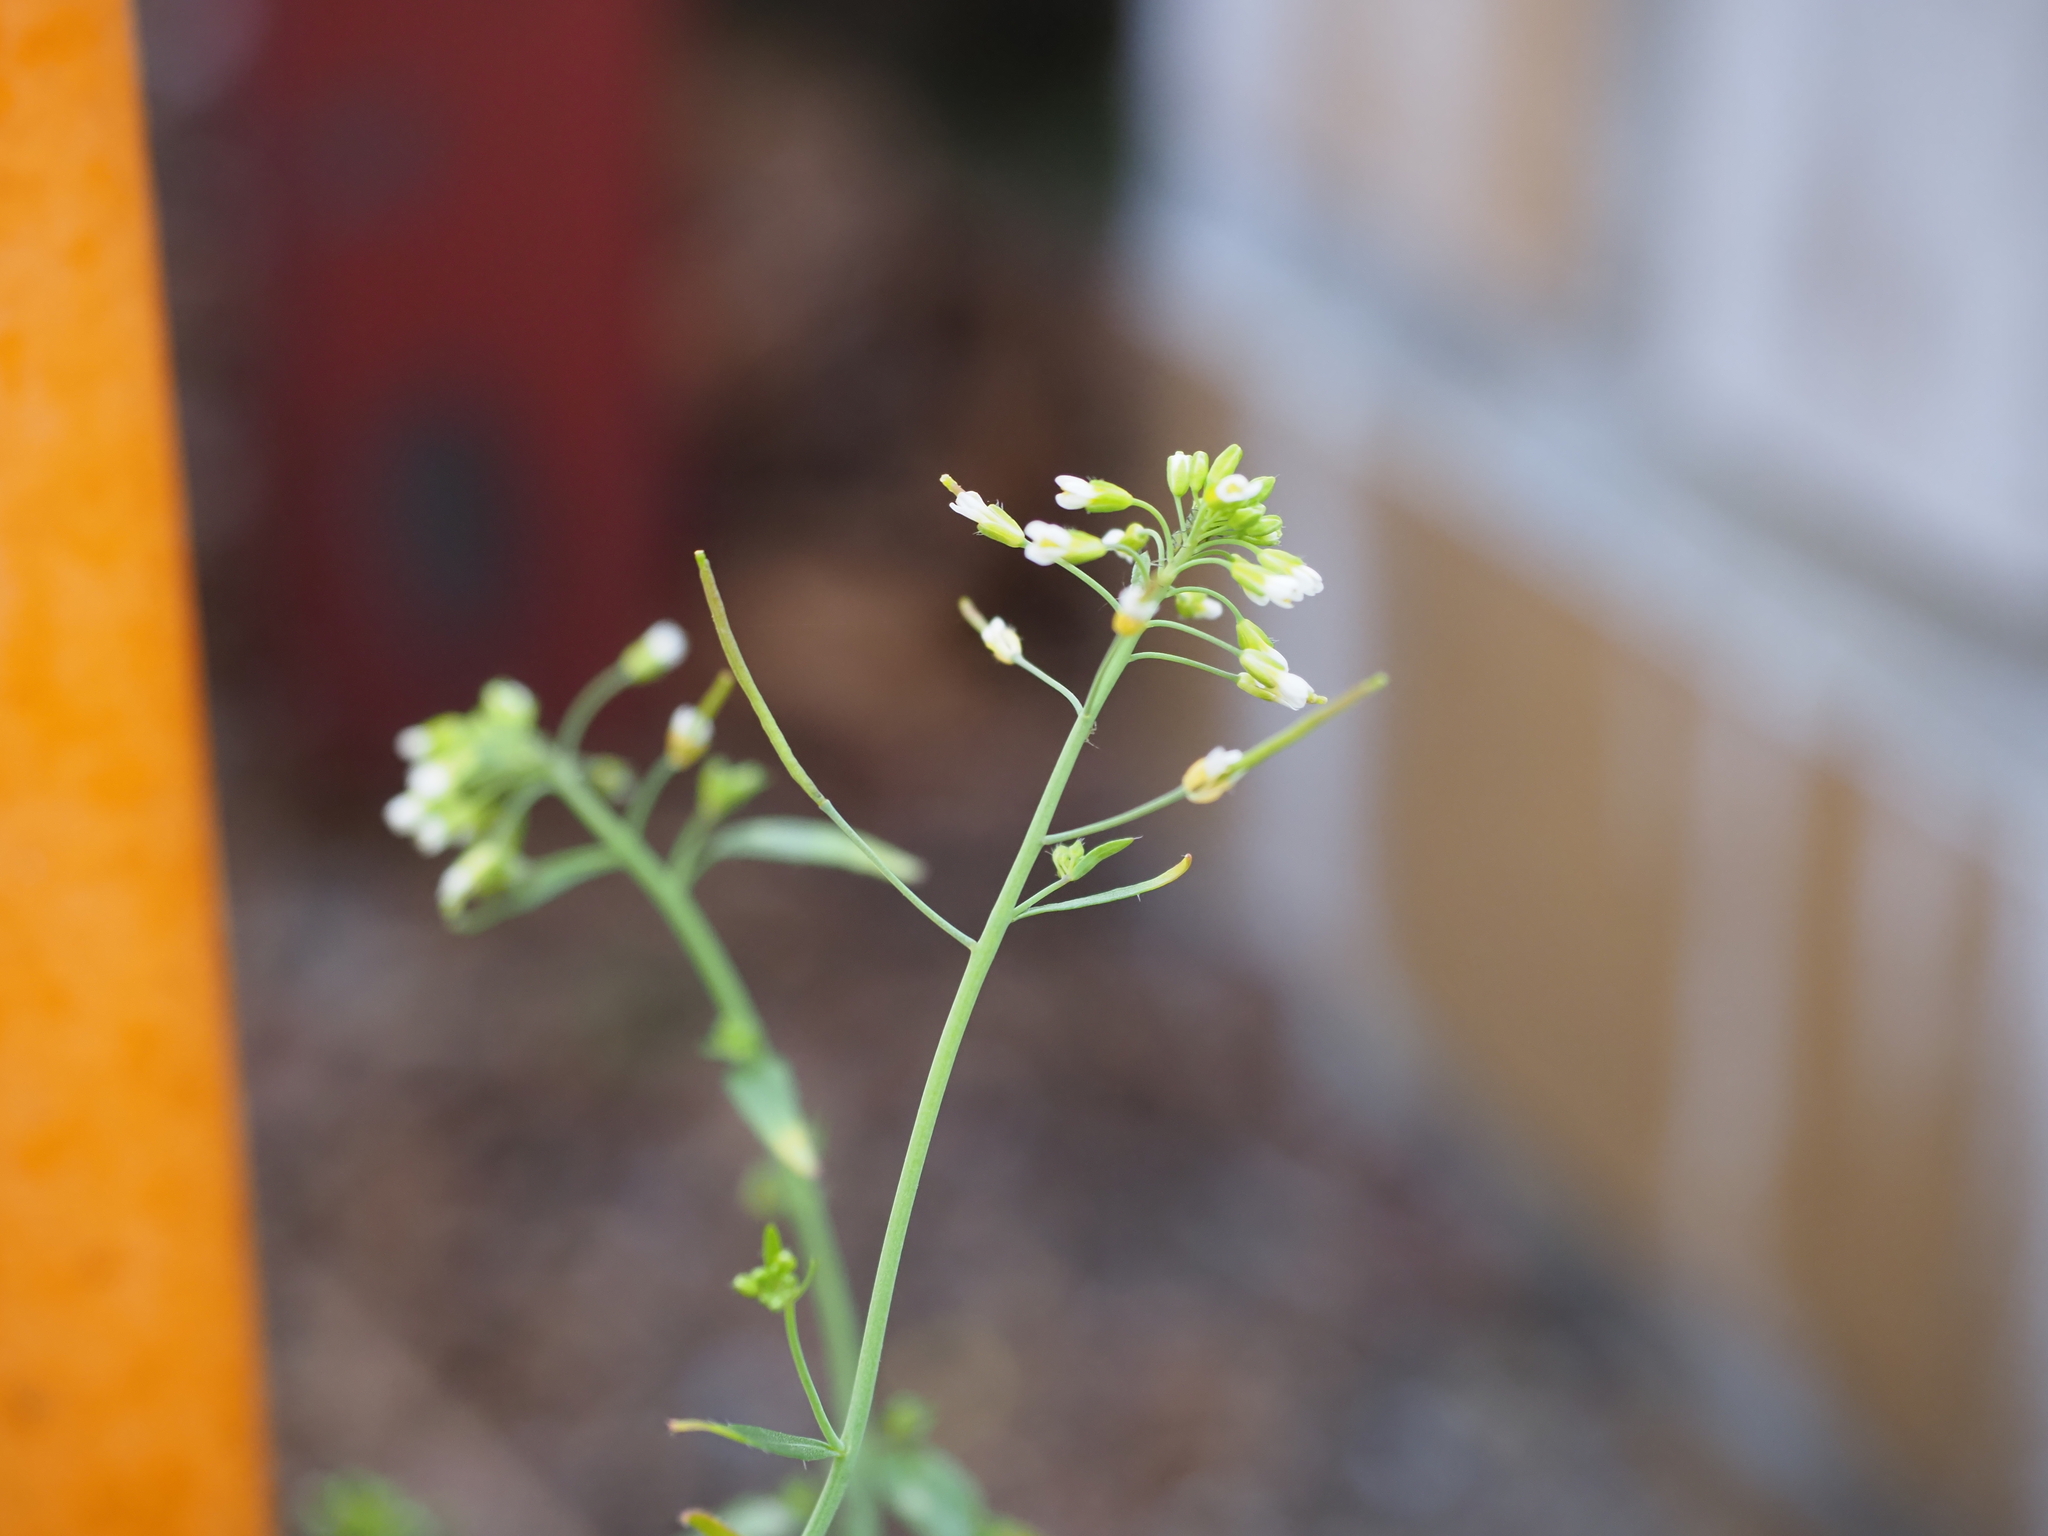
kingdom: Plantae
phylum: Tracheophyta
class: Magnoliopsida
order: Brassicales
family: Brassicaceae
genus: Arabidopsis
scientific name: Arabidopsis thaliana
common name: Thale cress
